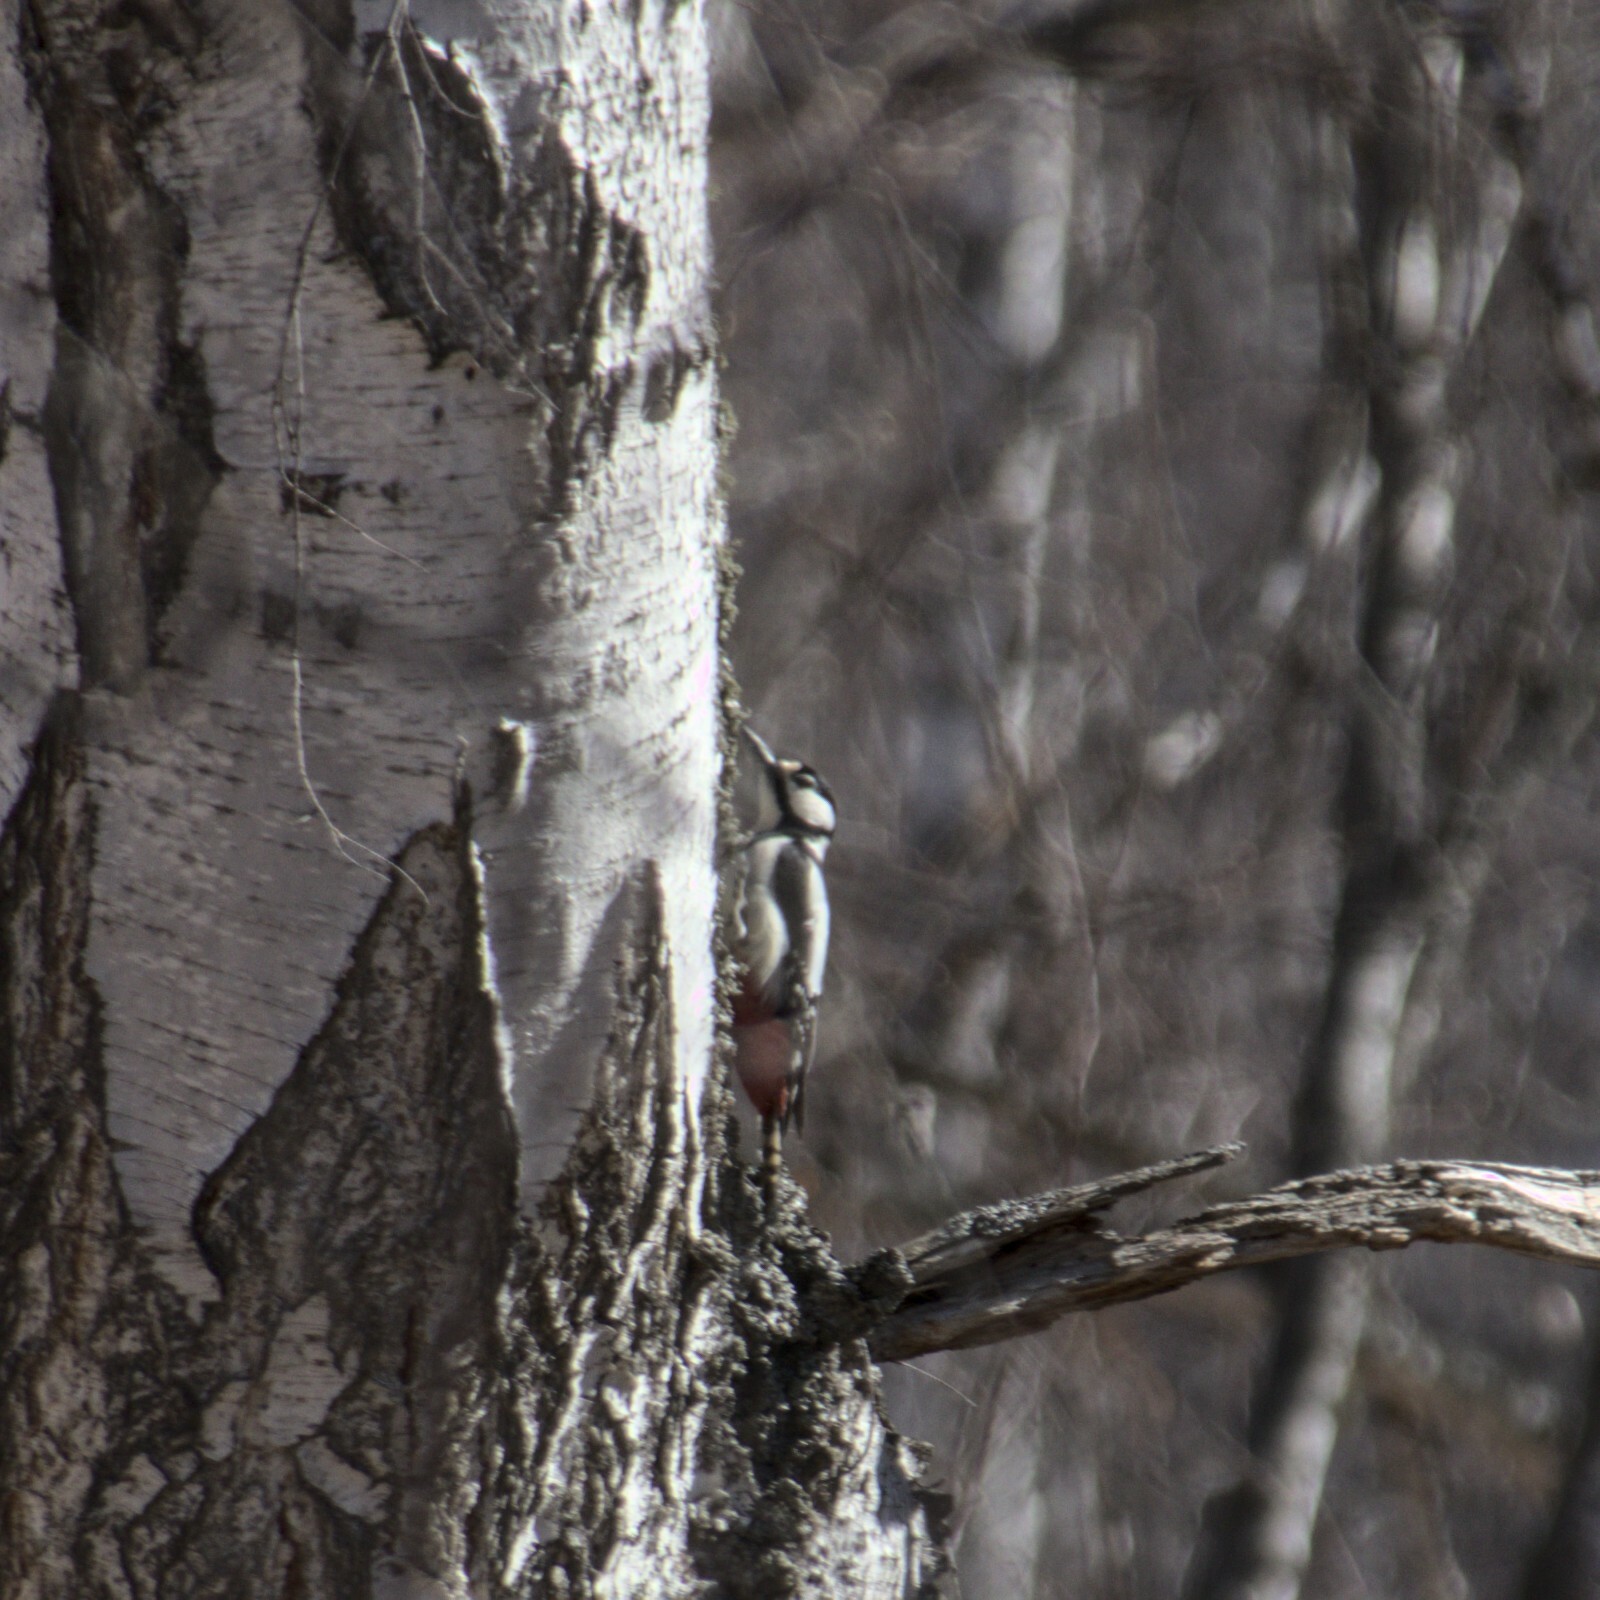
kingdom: Animalia
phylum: Chordata
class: Aves
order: Piciformes
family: Picidae
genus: Dendrocopos
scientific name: Dendrocopos major
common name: Great spotted woodpecker
